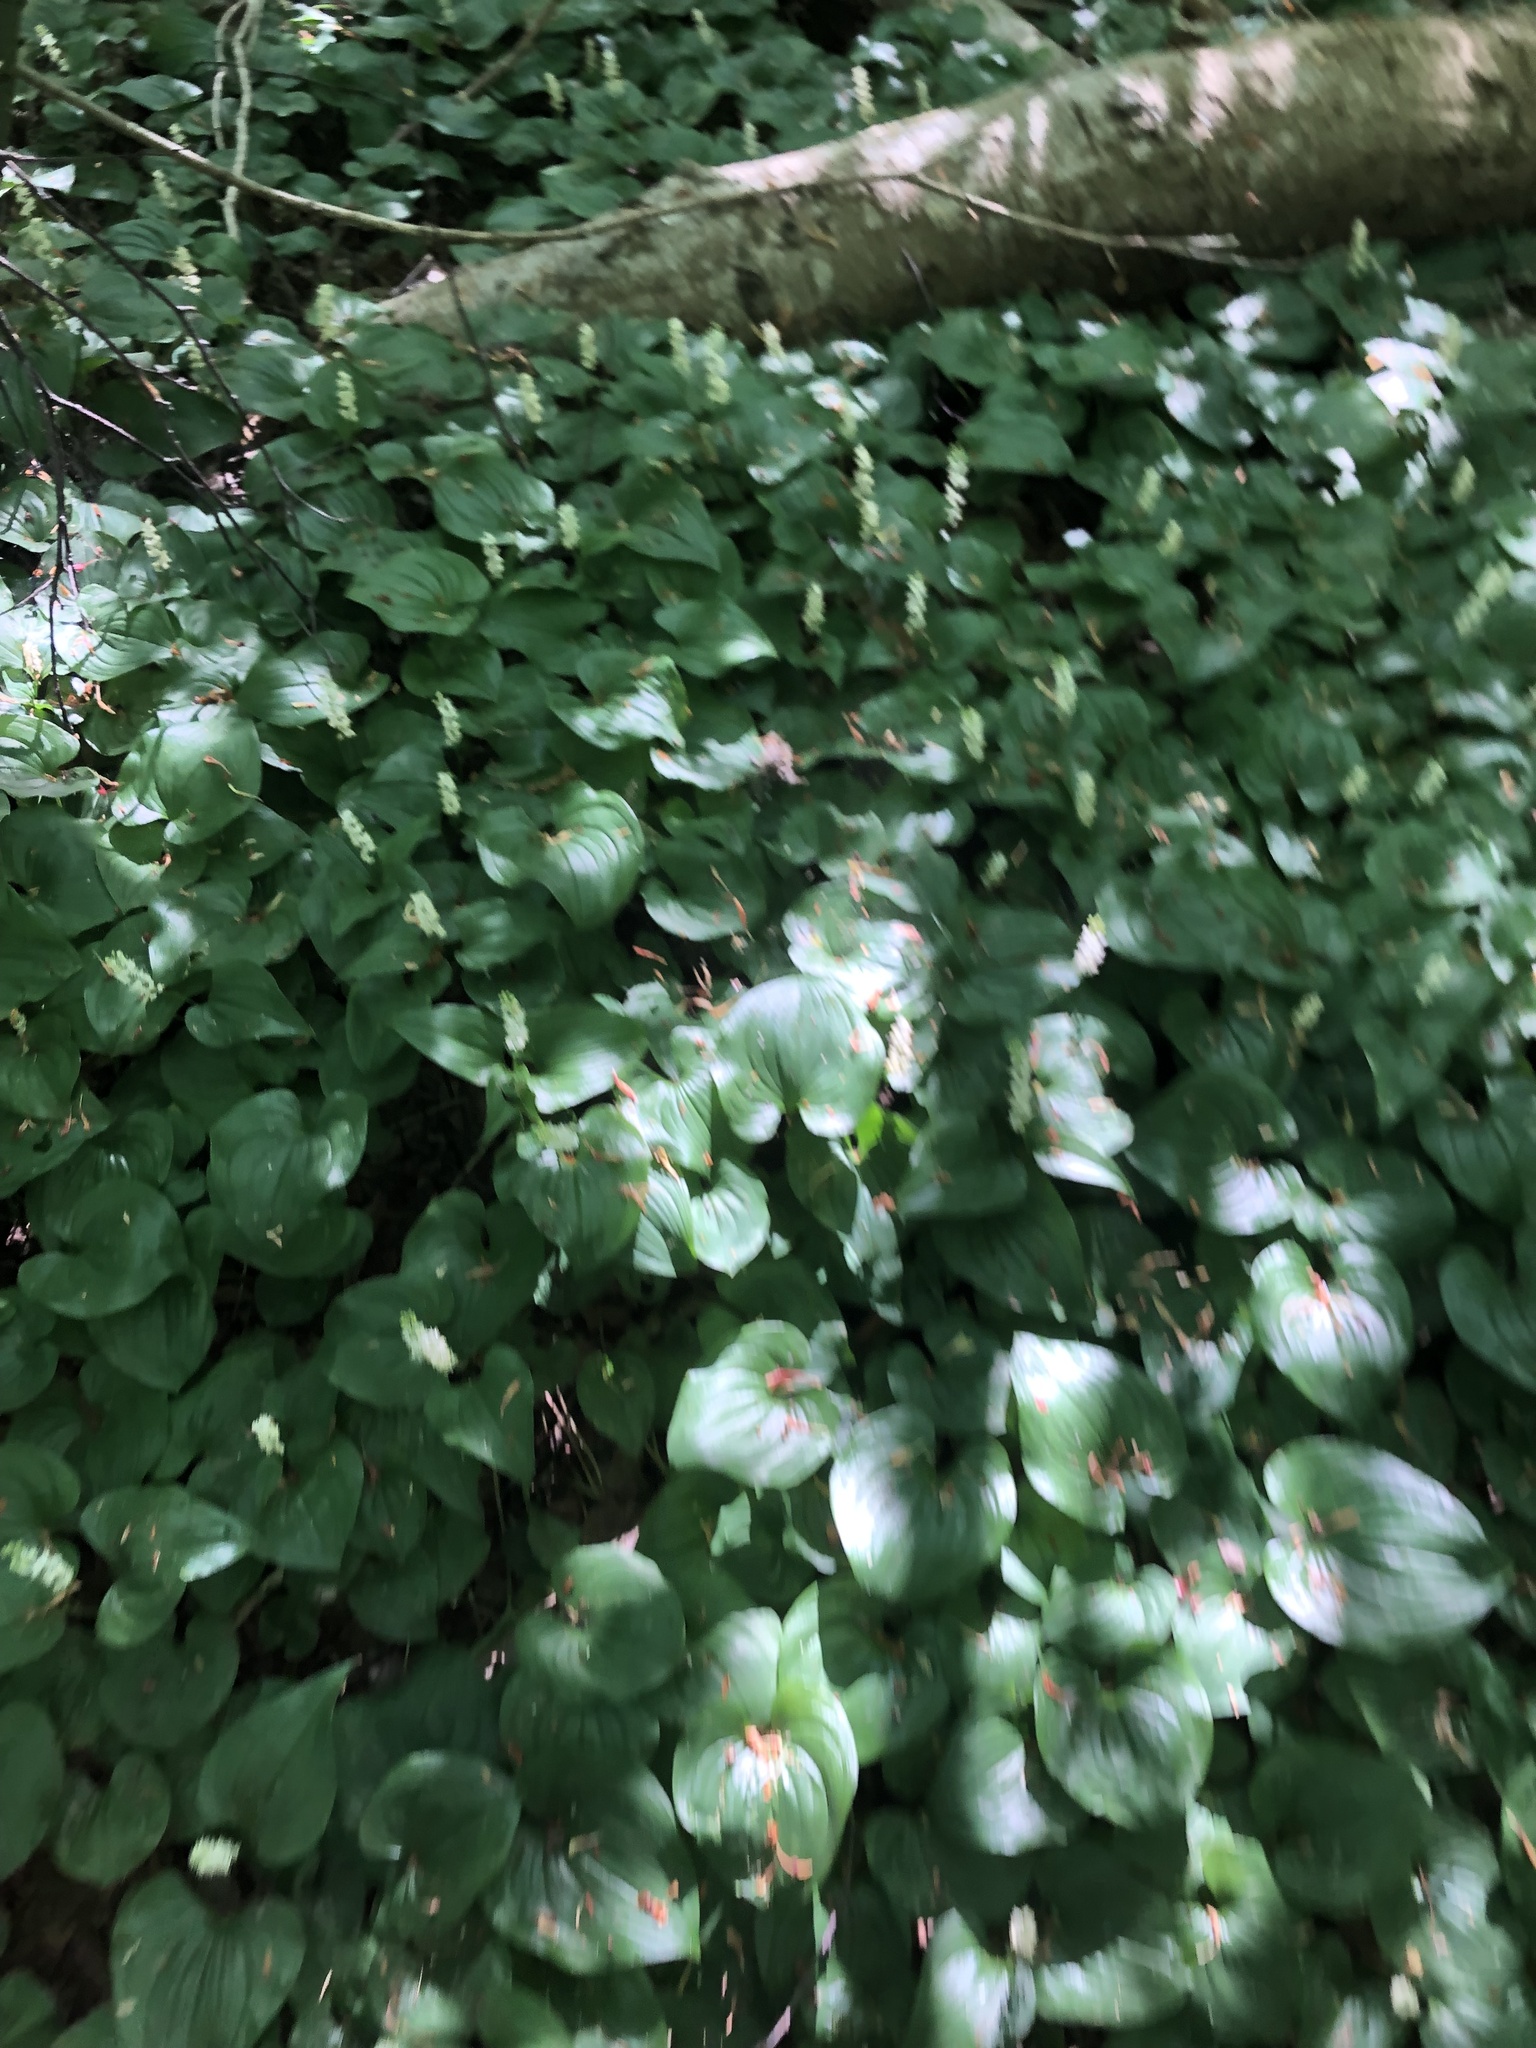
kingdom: Plantae
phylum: Tracheophyta
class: Liliopsida
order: Asparagales
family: Asparagaceae
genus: Maianthemum
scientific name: Maianthemum dilatatum
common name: False lily-of-the-valley
